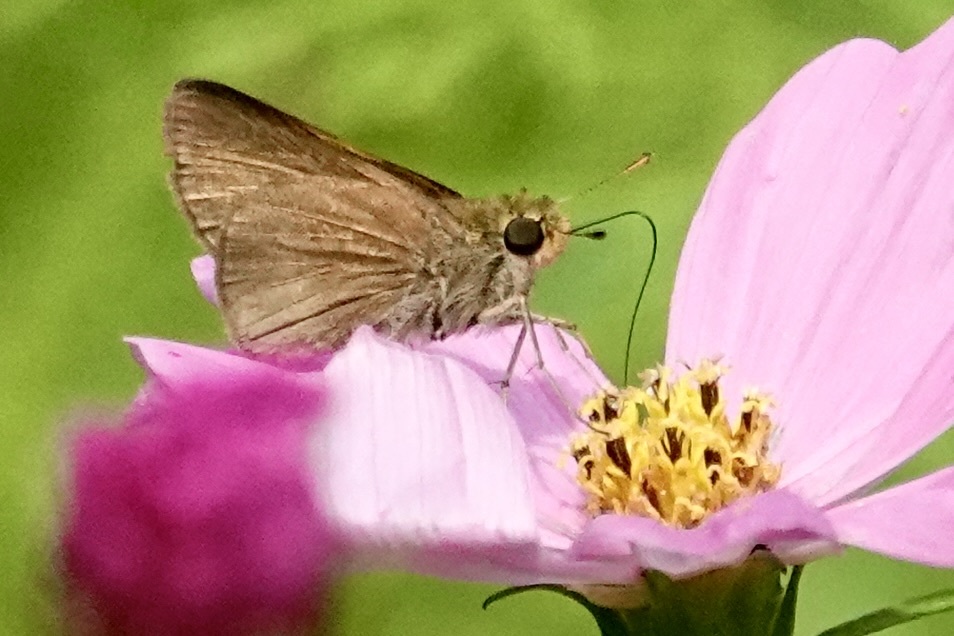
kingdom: Animalia
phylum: Arthropoda
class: Insecta
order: Lepidoptera
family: Hesperiidae
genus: Euphyes
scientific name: Euphyes vestris
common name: Dun skipper
